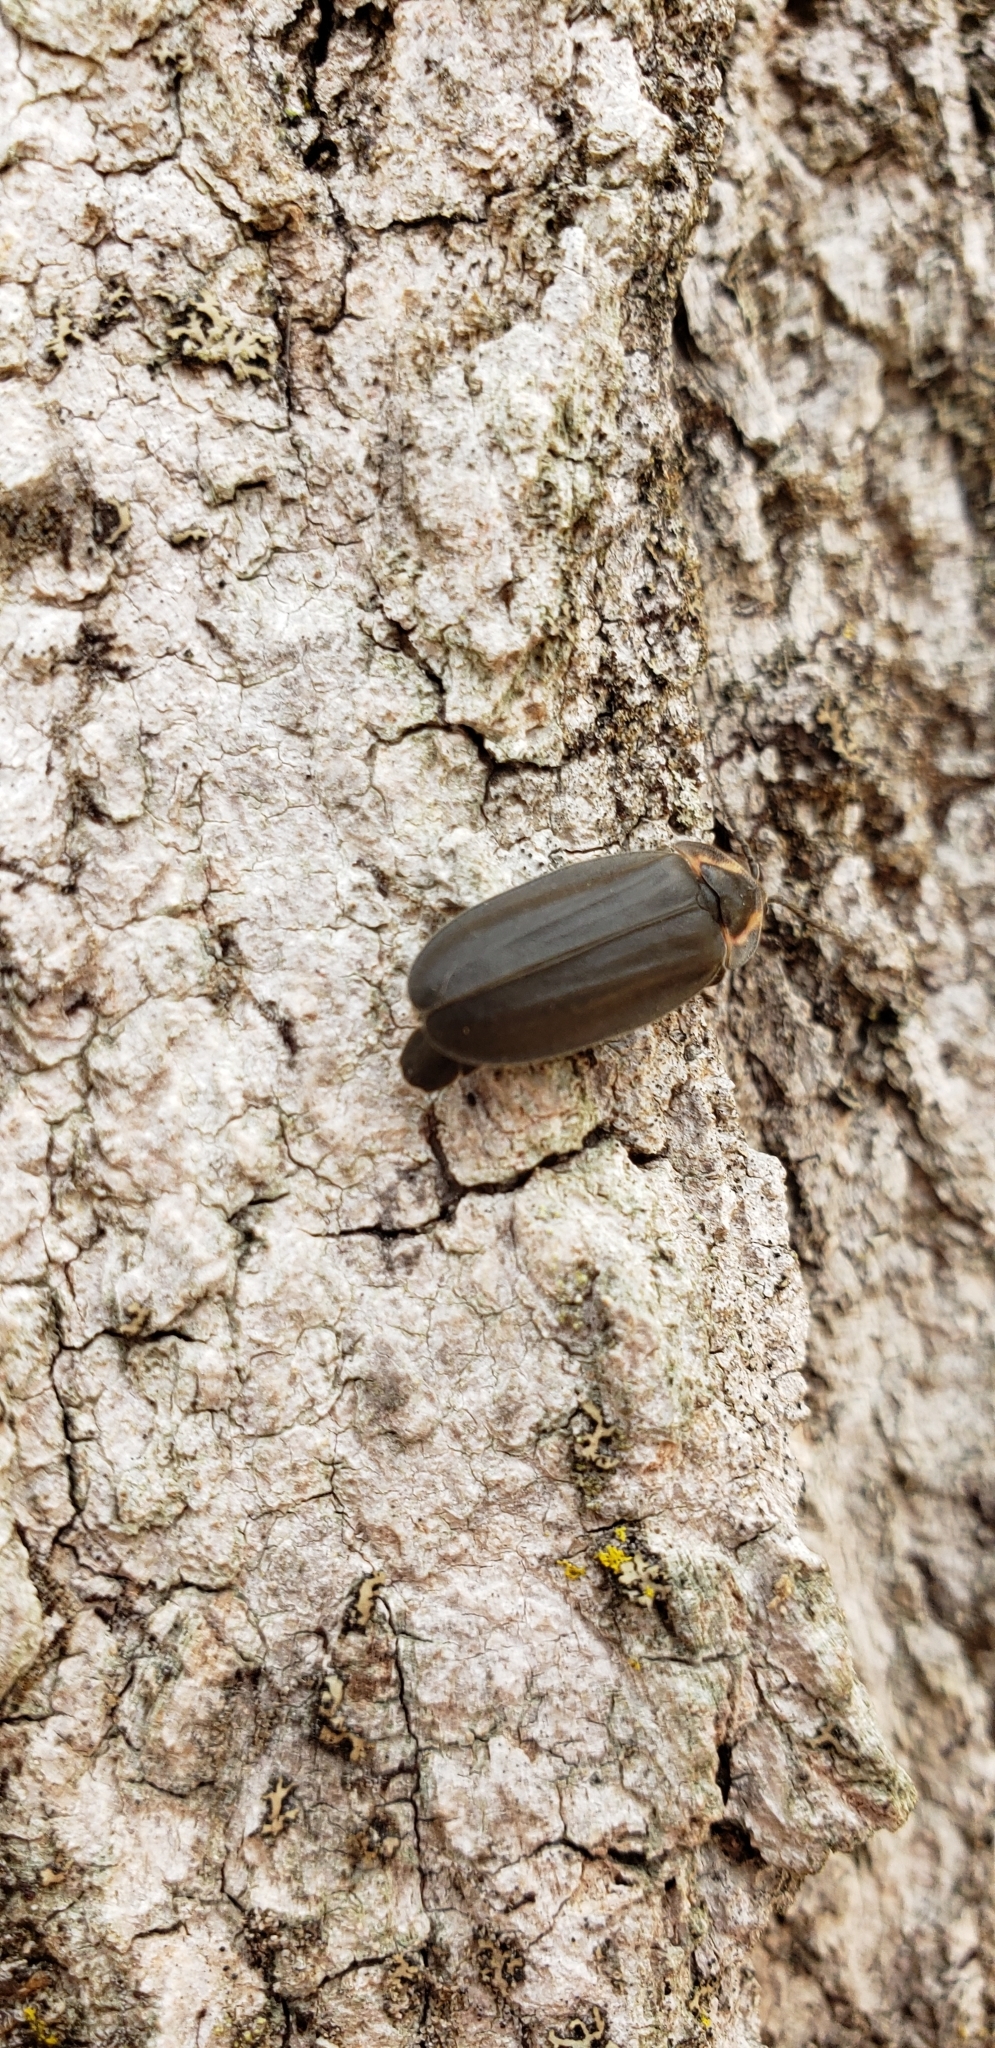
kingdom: Animalia
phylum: Arthropoda
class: Insecta
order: Coleoptera
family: Lampyridae
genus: Photinus
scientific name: Photinus corrusca
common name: Winter firefly
